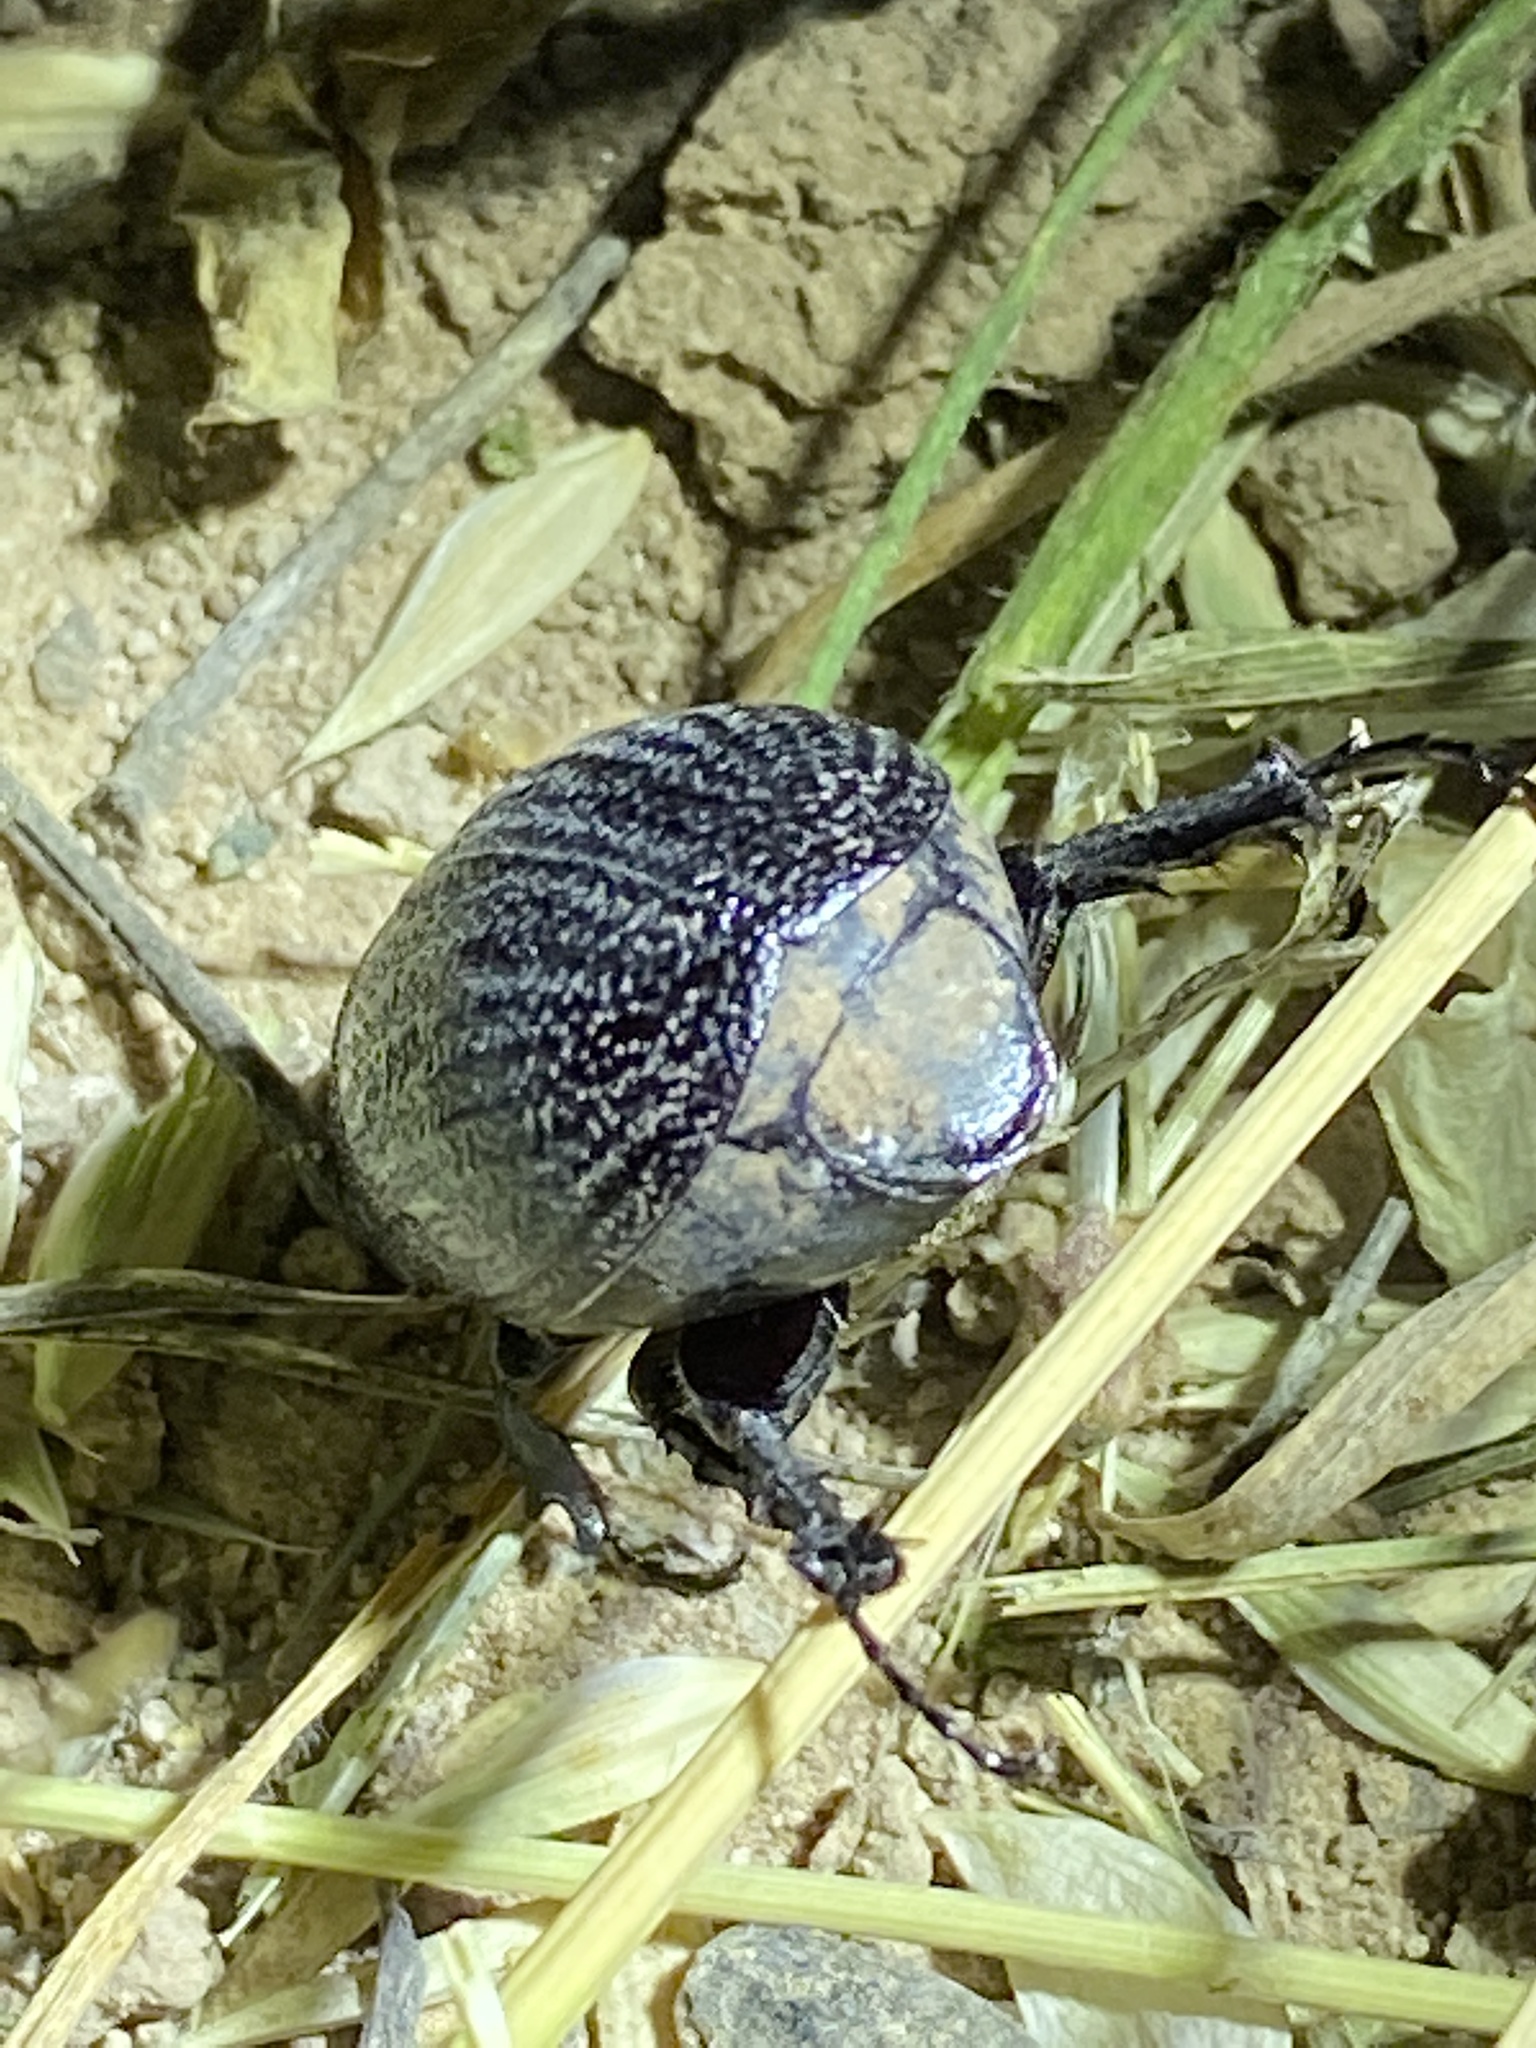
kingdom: Animalia
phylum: Arthropoda
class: Insecta
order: Coleoptera
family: Scarabaeidae
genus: Phyllophaga
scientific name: Phyllophaga cribrosa
